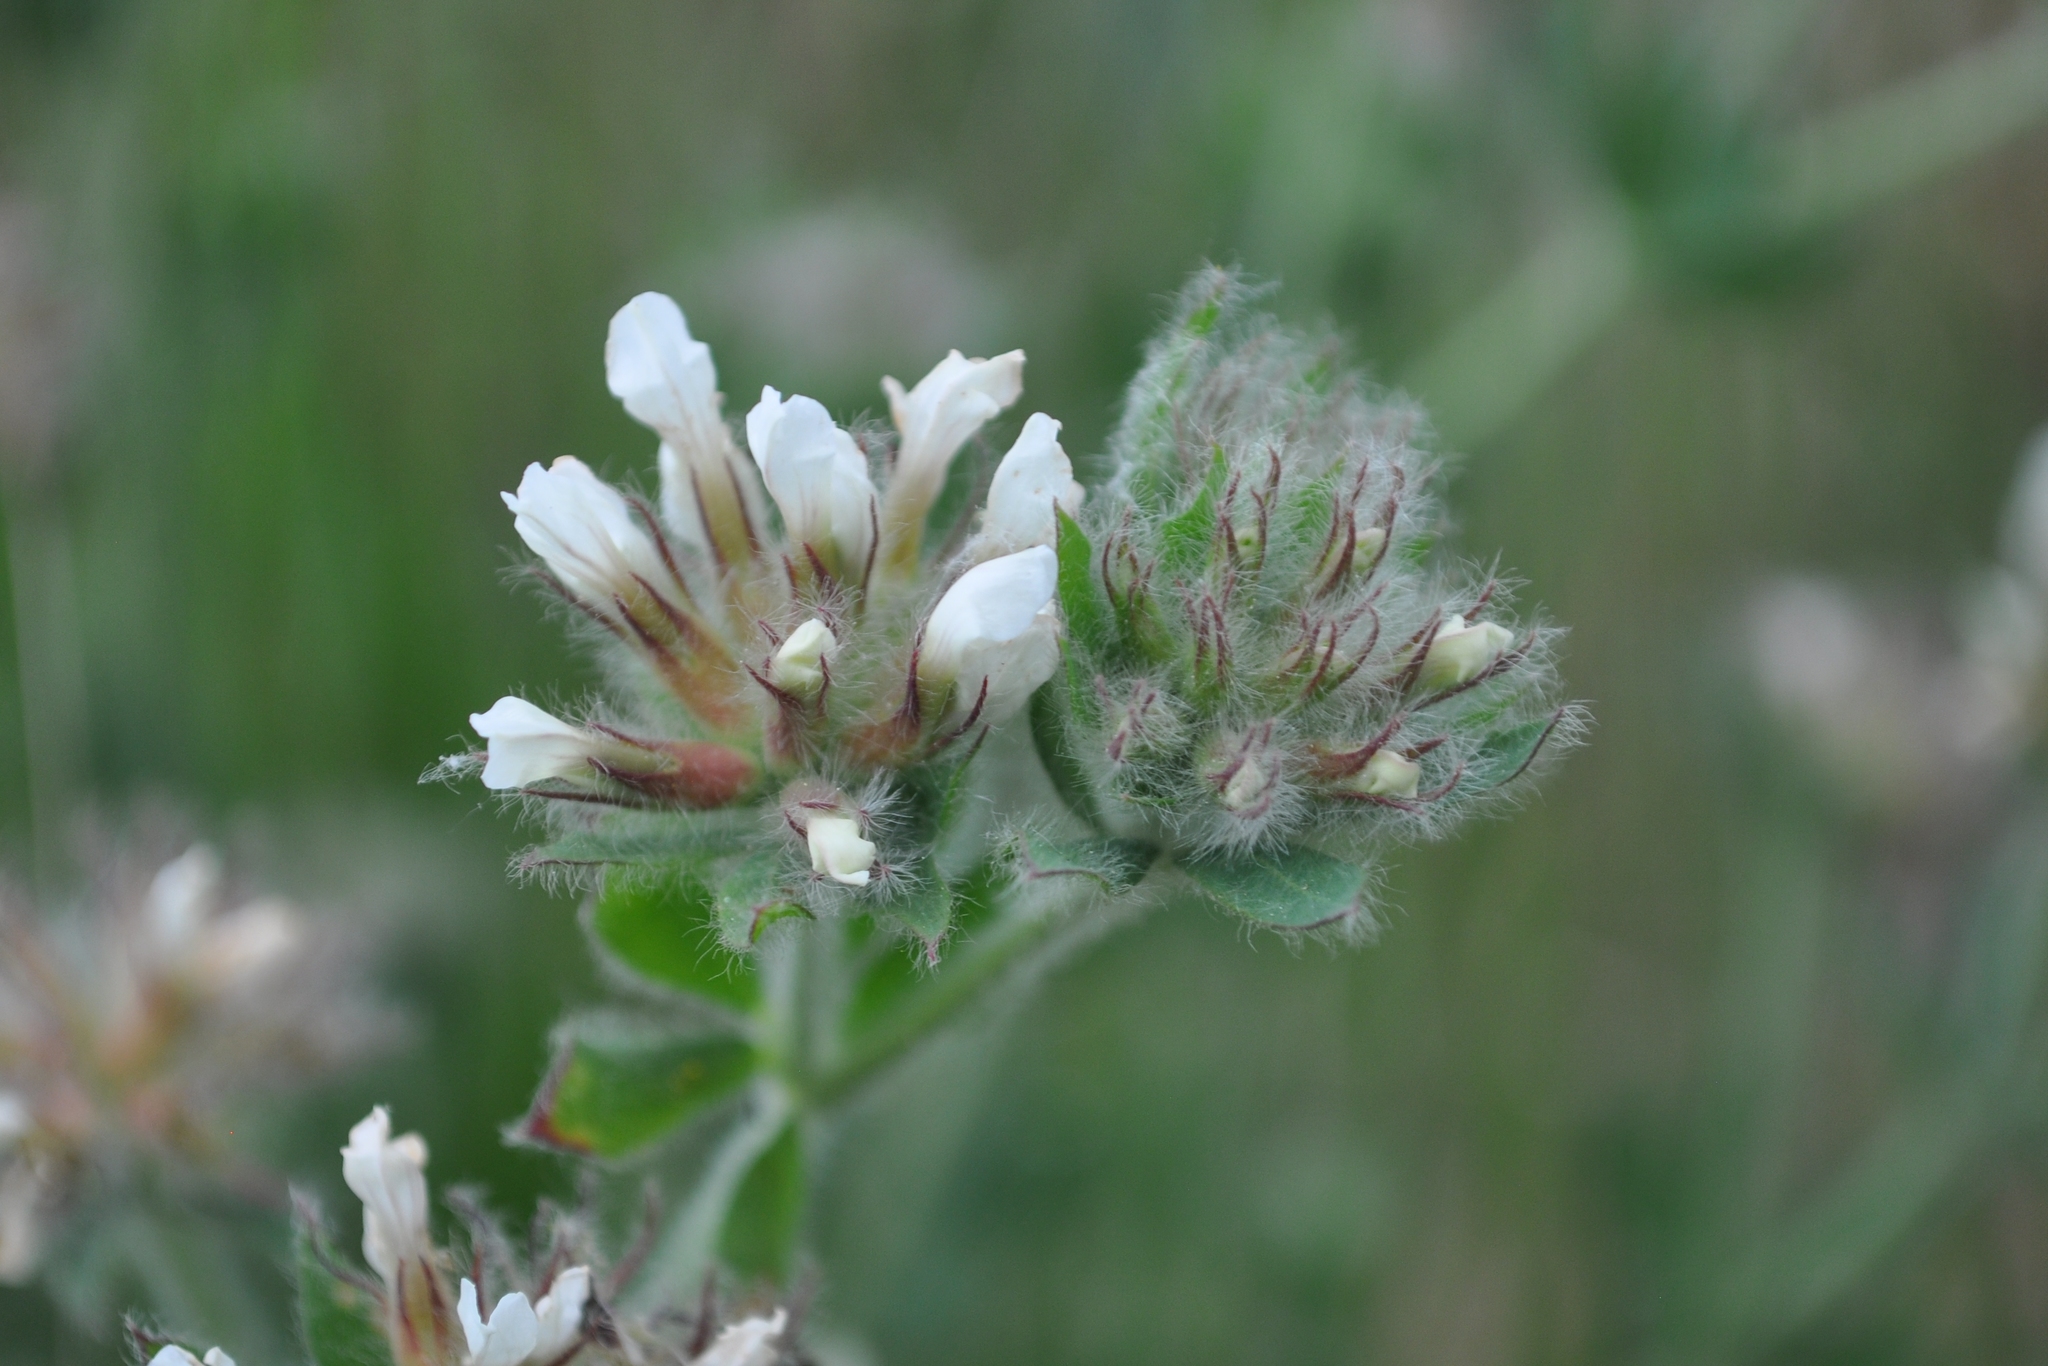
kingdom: Plantae
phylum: Tracheophyta
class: Magnoliopsida
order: Fabales
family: Fabaceae
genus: Lotus
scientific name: Lotus hirsutus
